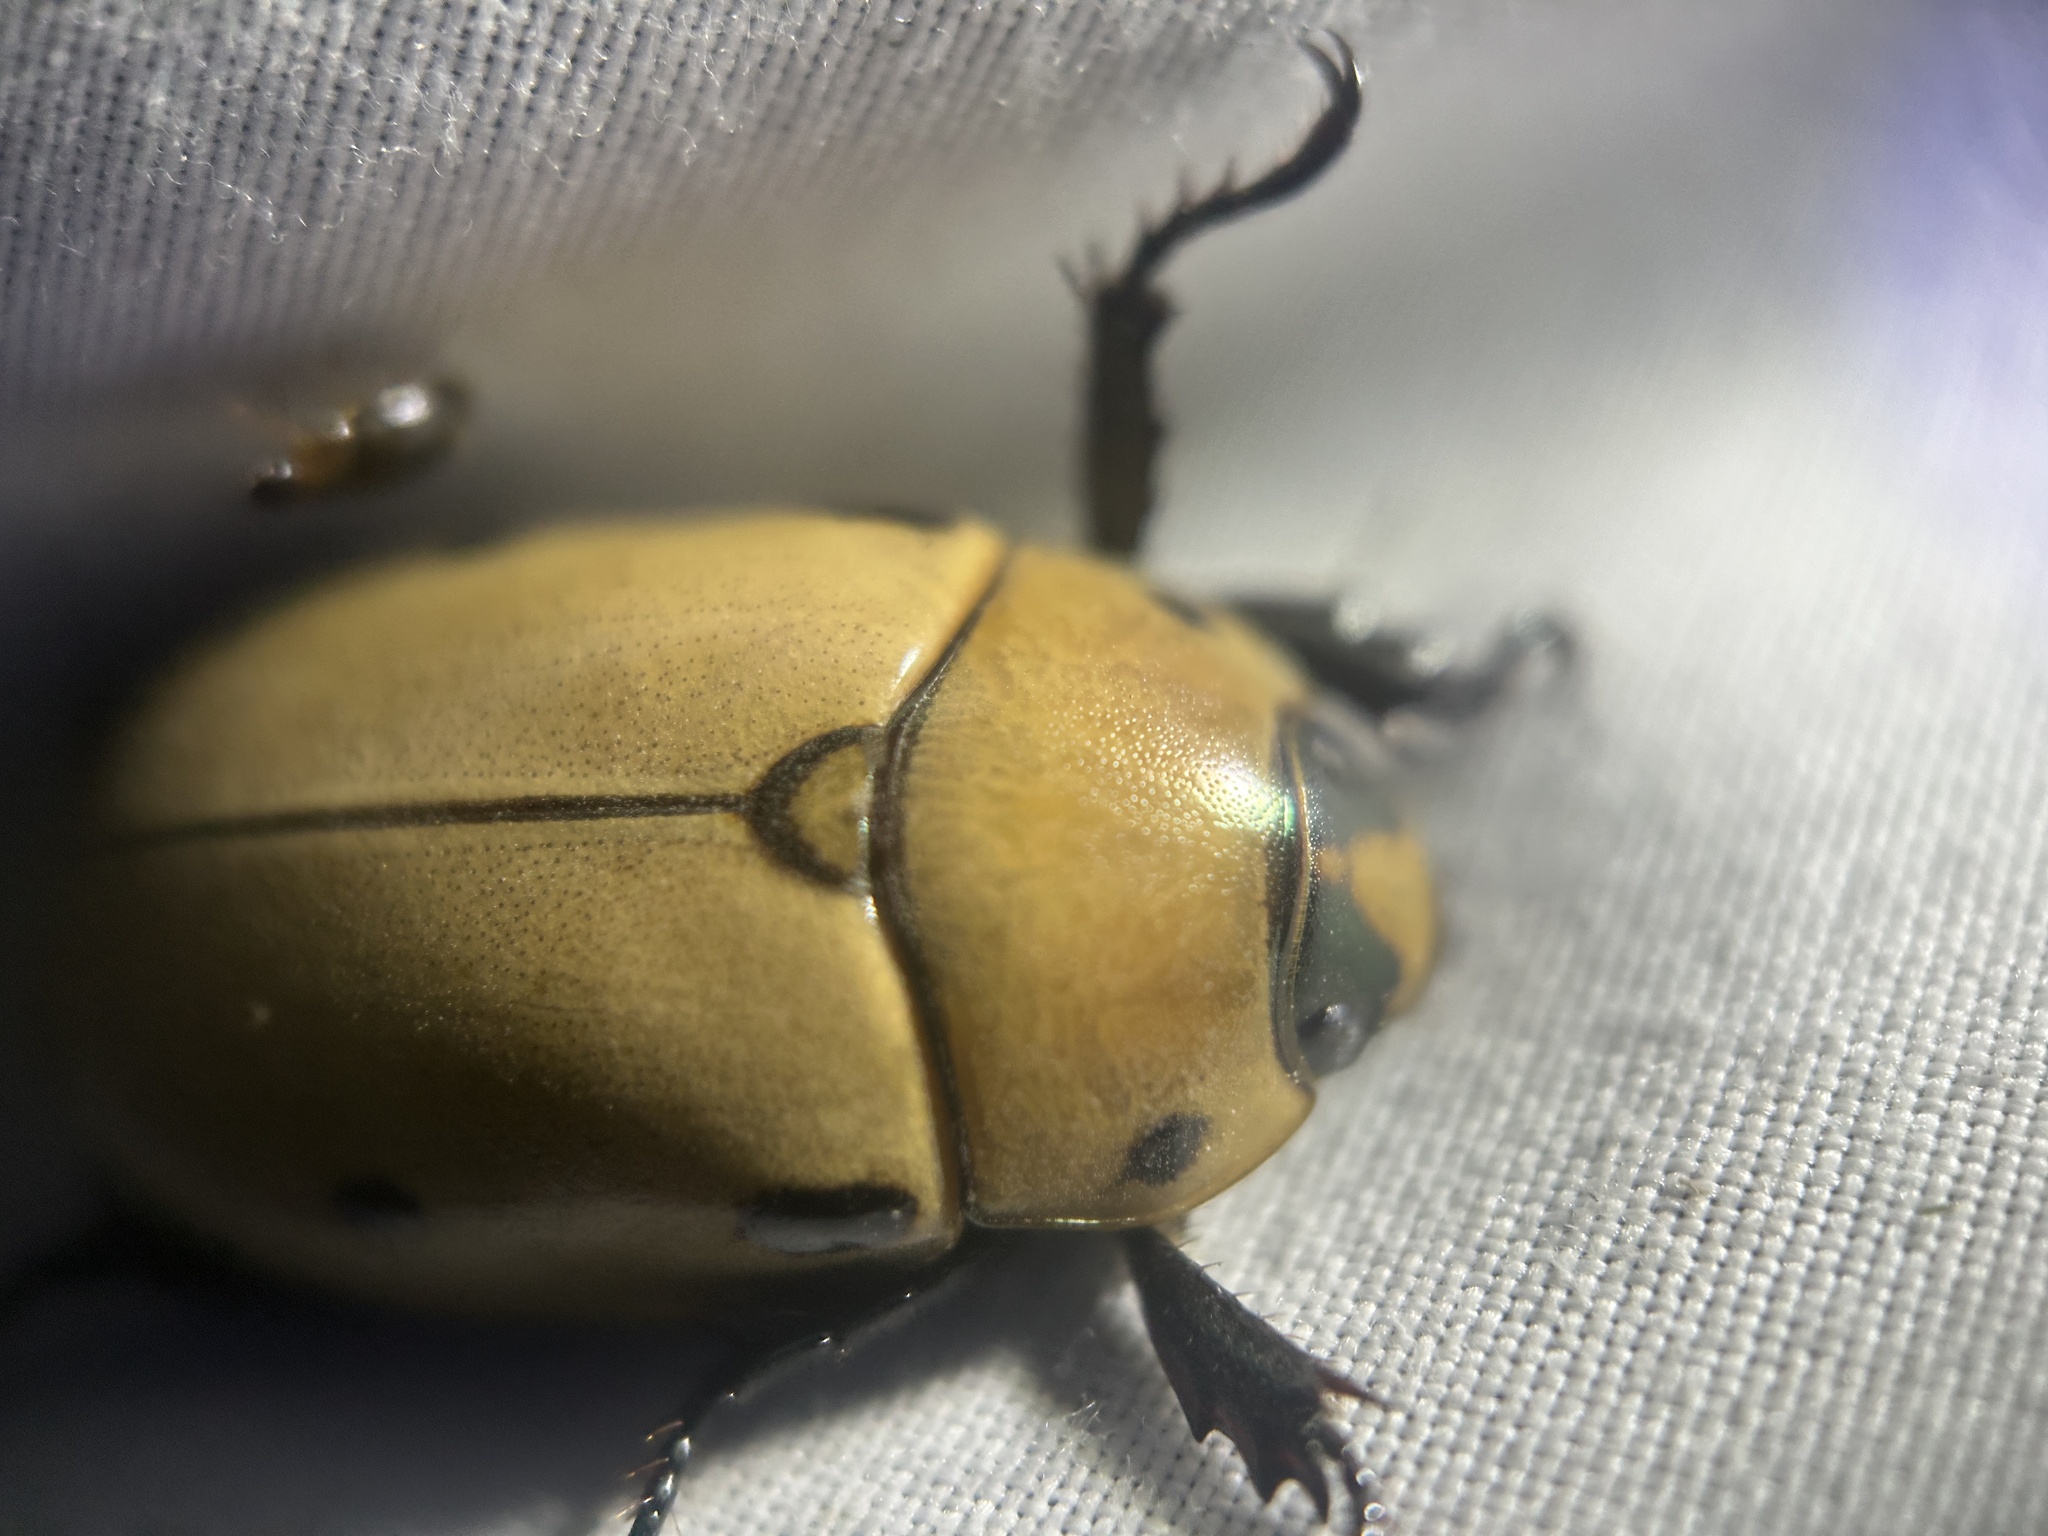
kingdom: Animalia
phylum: Arthropoda
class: Insecta
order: Coleoptera
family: Scarabaeidae
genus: Pelidnota
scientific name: Pelidnota punctata
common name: Grapevine beetle
